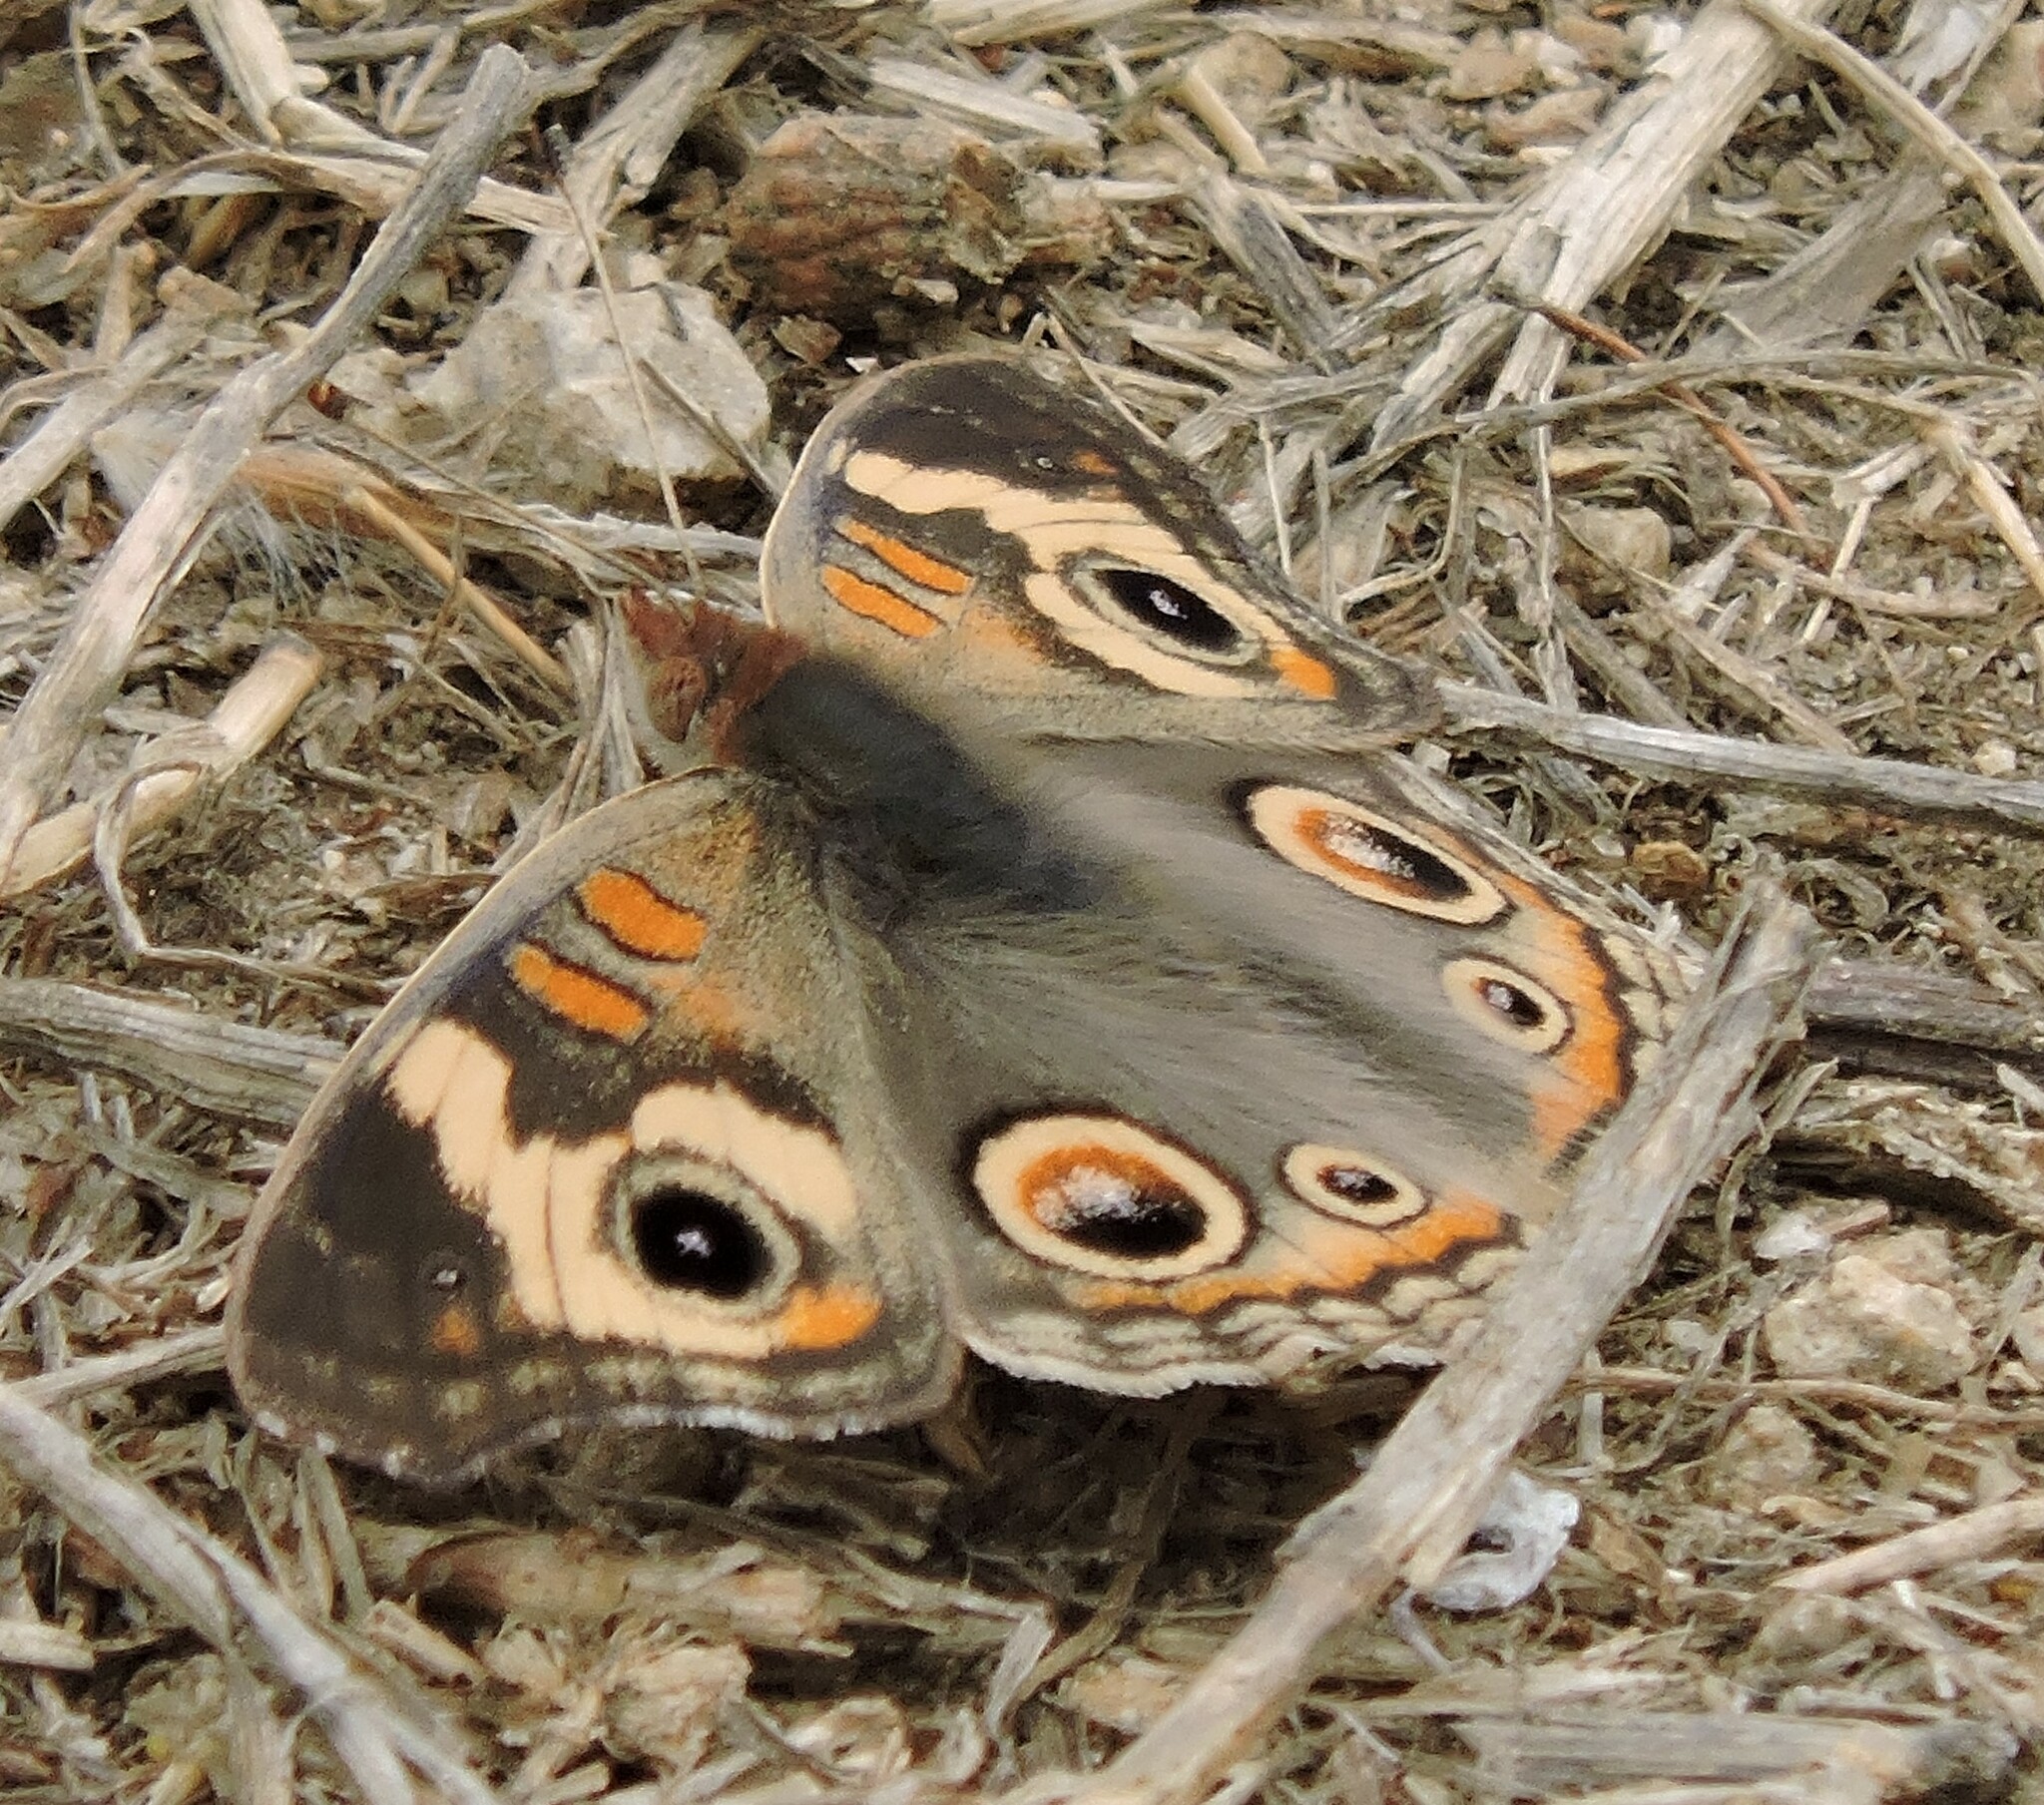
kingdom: Animalia
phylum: Arthropoda
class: Insecta
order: Lepidoptera
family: Nymphalidae
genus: Junonia
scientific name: Junonia grisea
